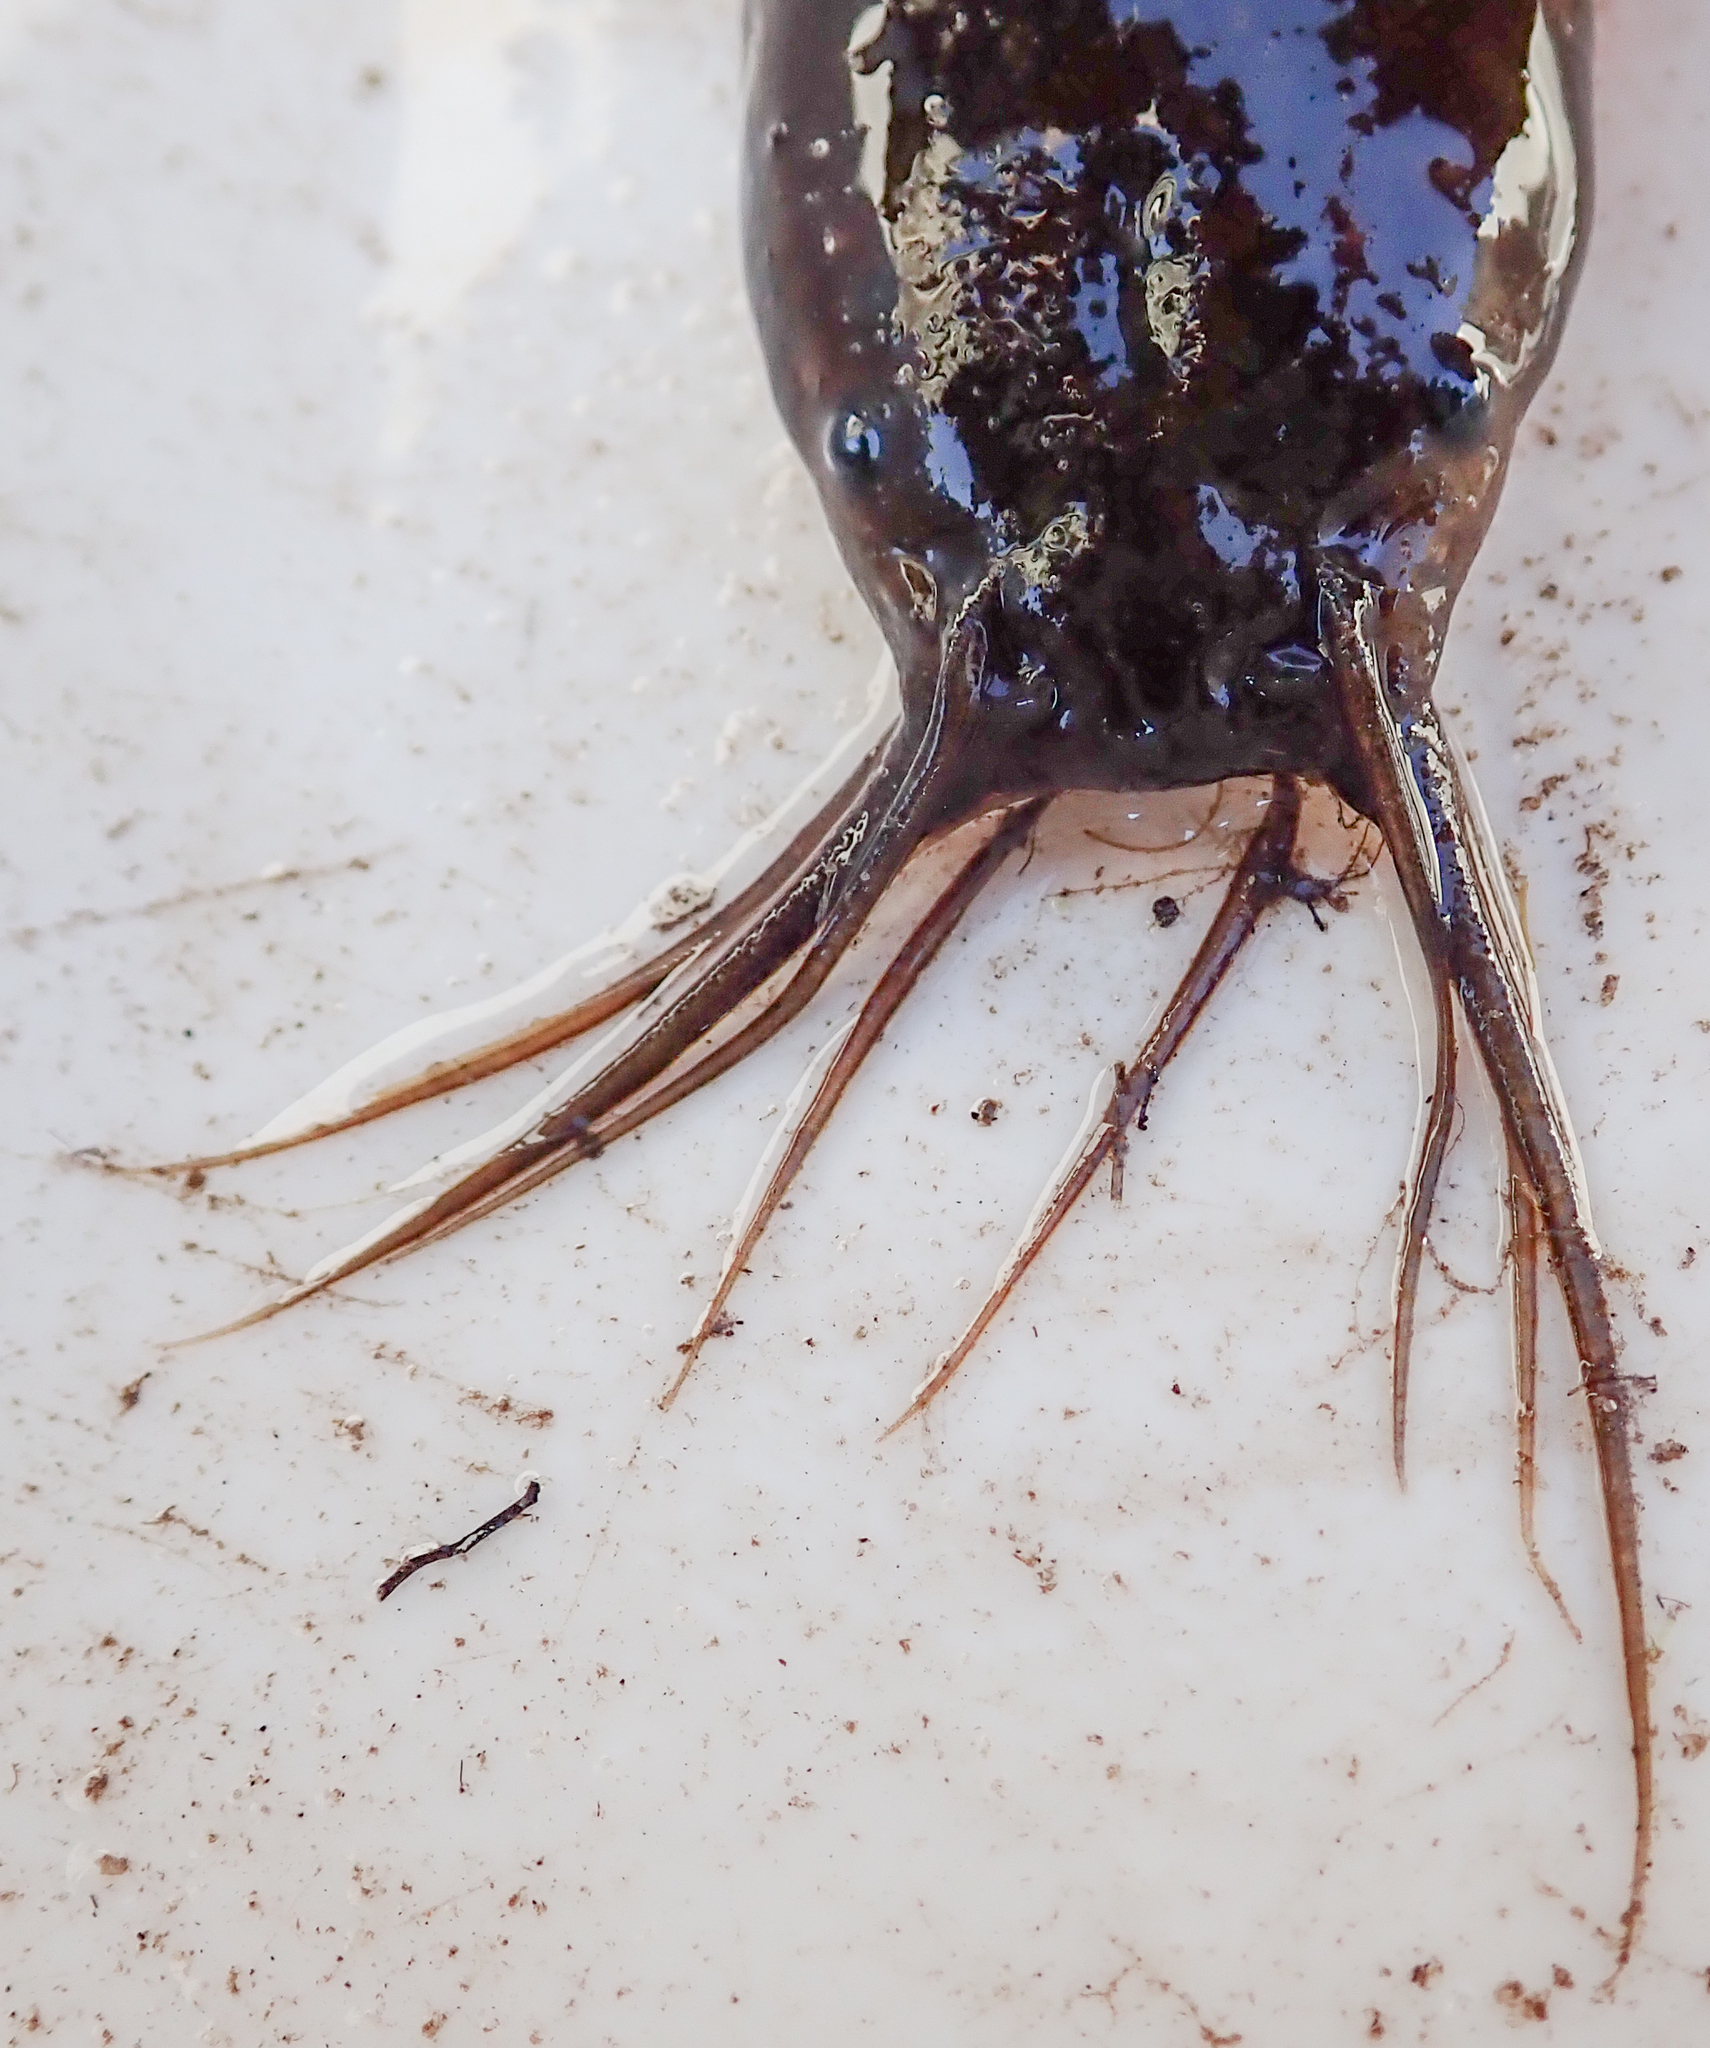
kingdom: Animalia
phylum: Chordata
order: Siluriformes
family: Clariidae
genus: Clarias
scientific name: Clarias theodorae
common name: Snake catfish
